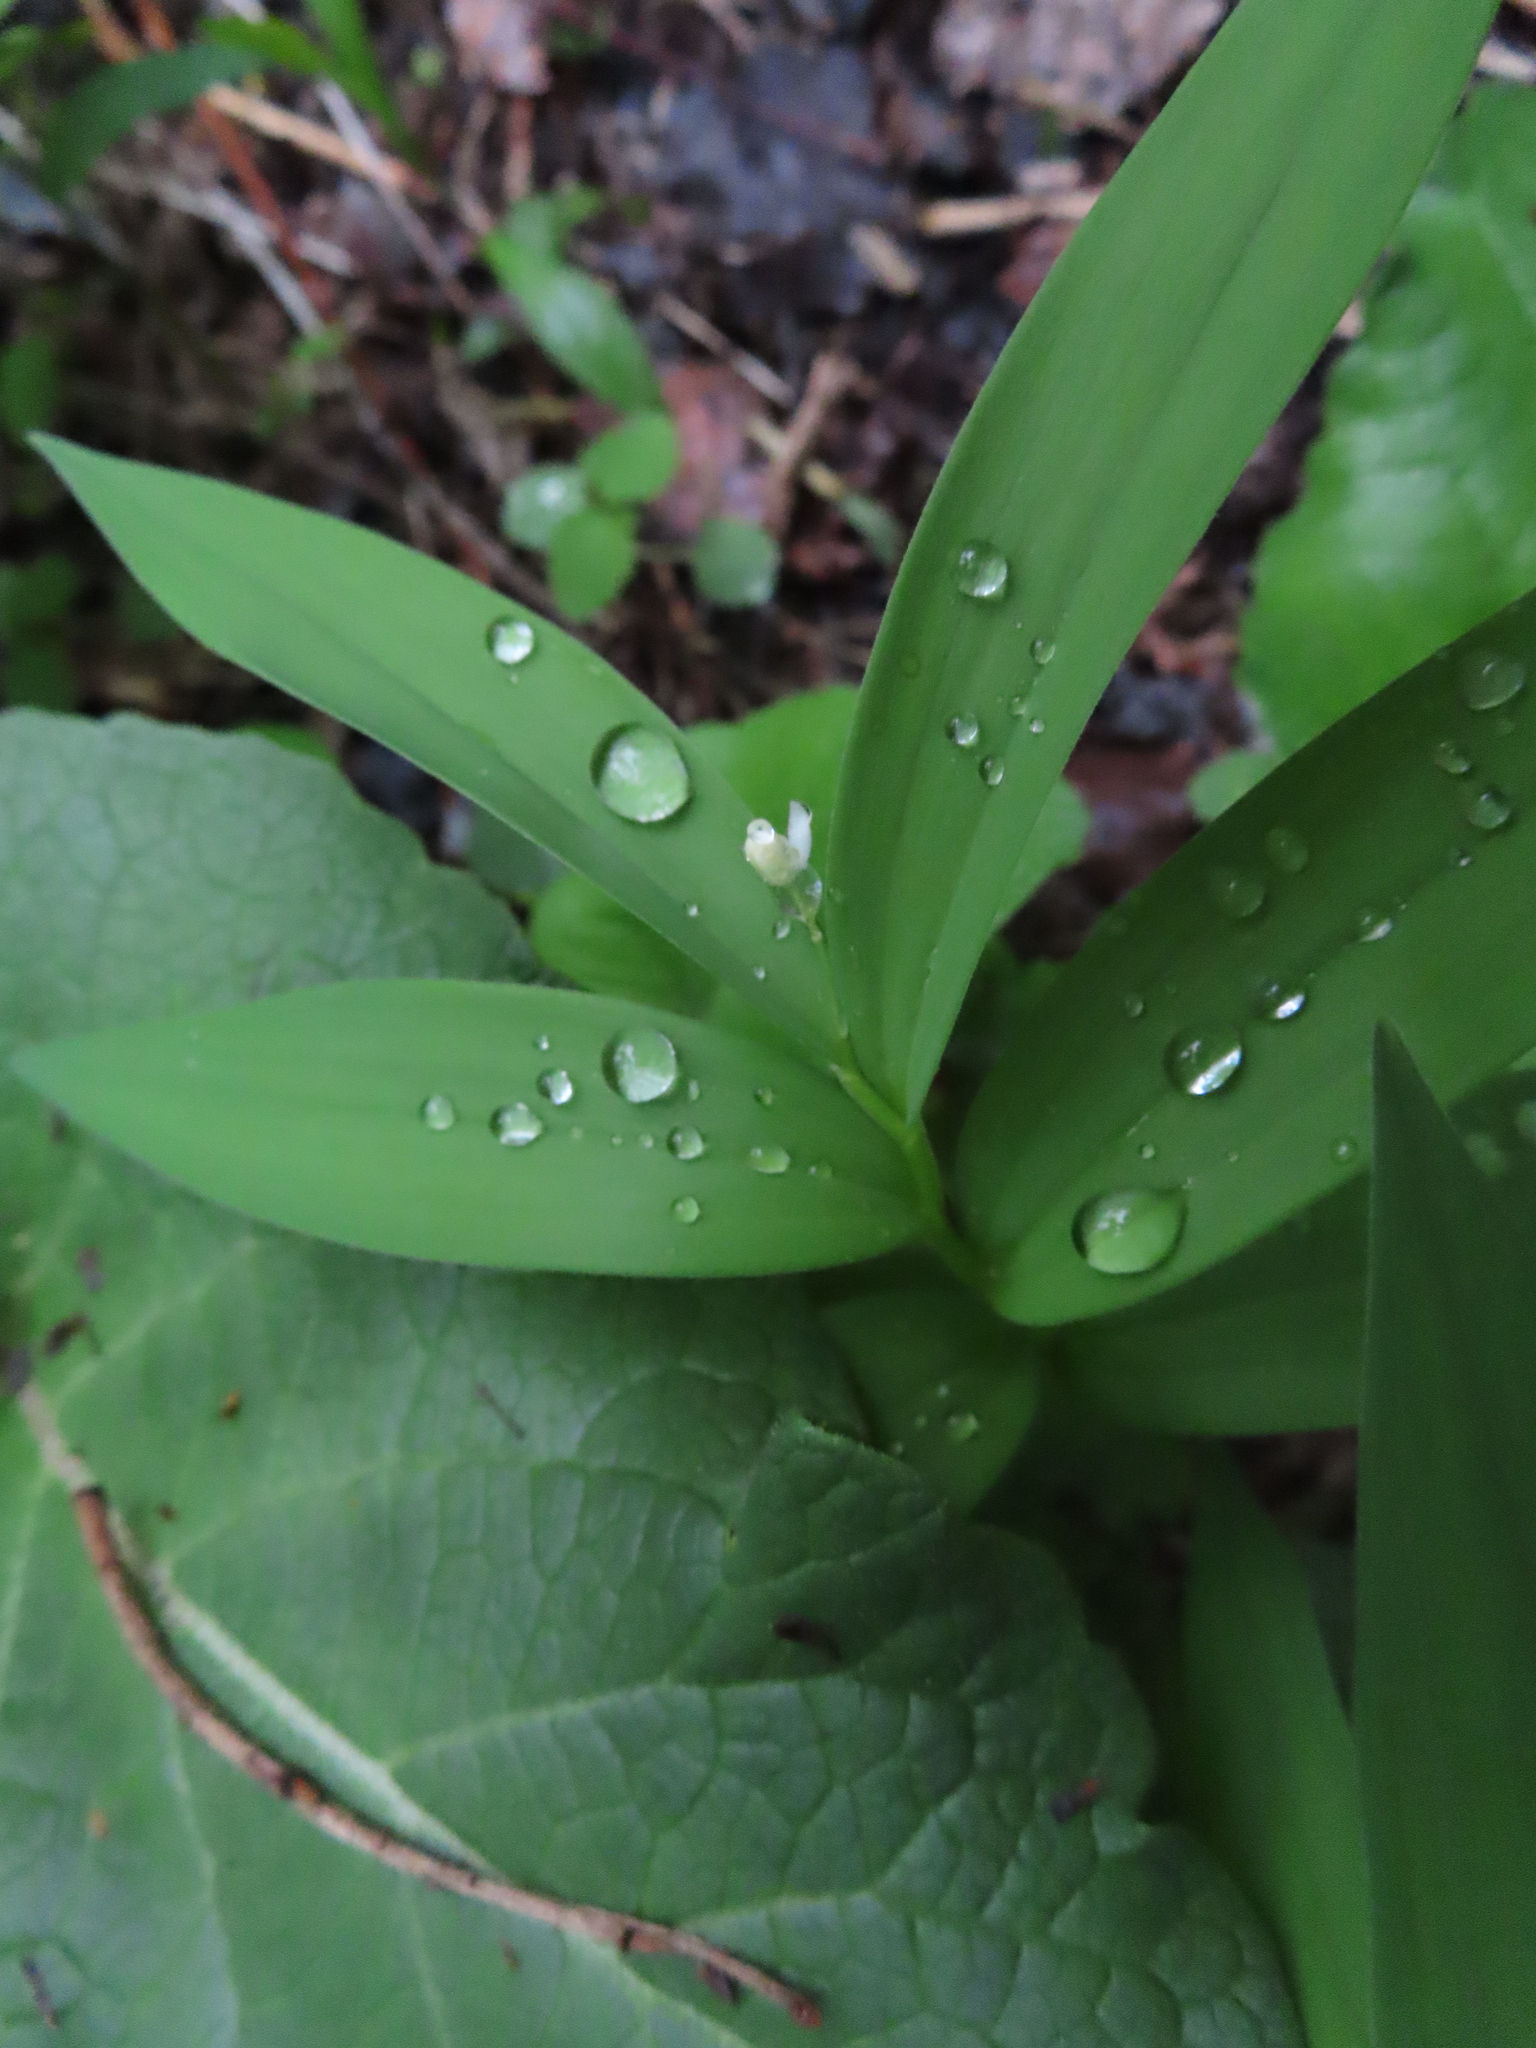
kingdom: Plantae
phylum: Tracheophyta
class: Liliopsida
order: Asparagales
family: Asparagaceae
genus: Maianthemum
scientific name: Maianthemum stellatum
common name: Little false solomon's seal
